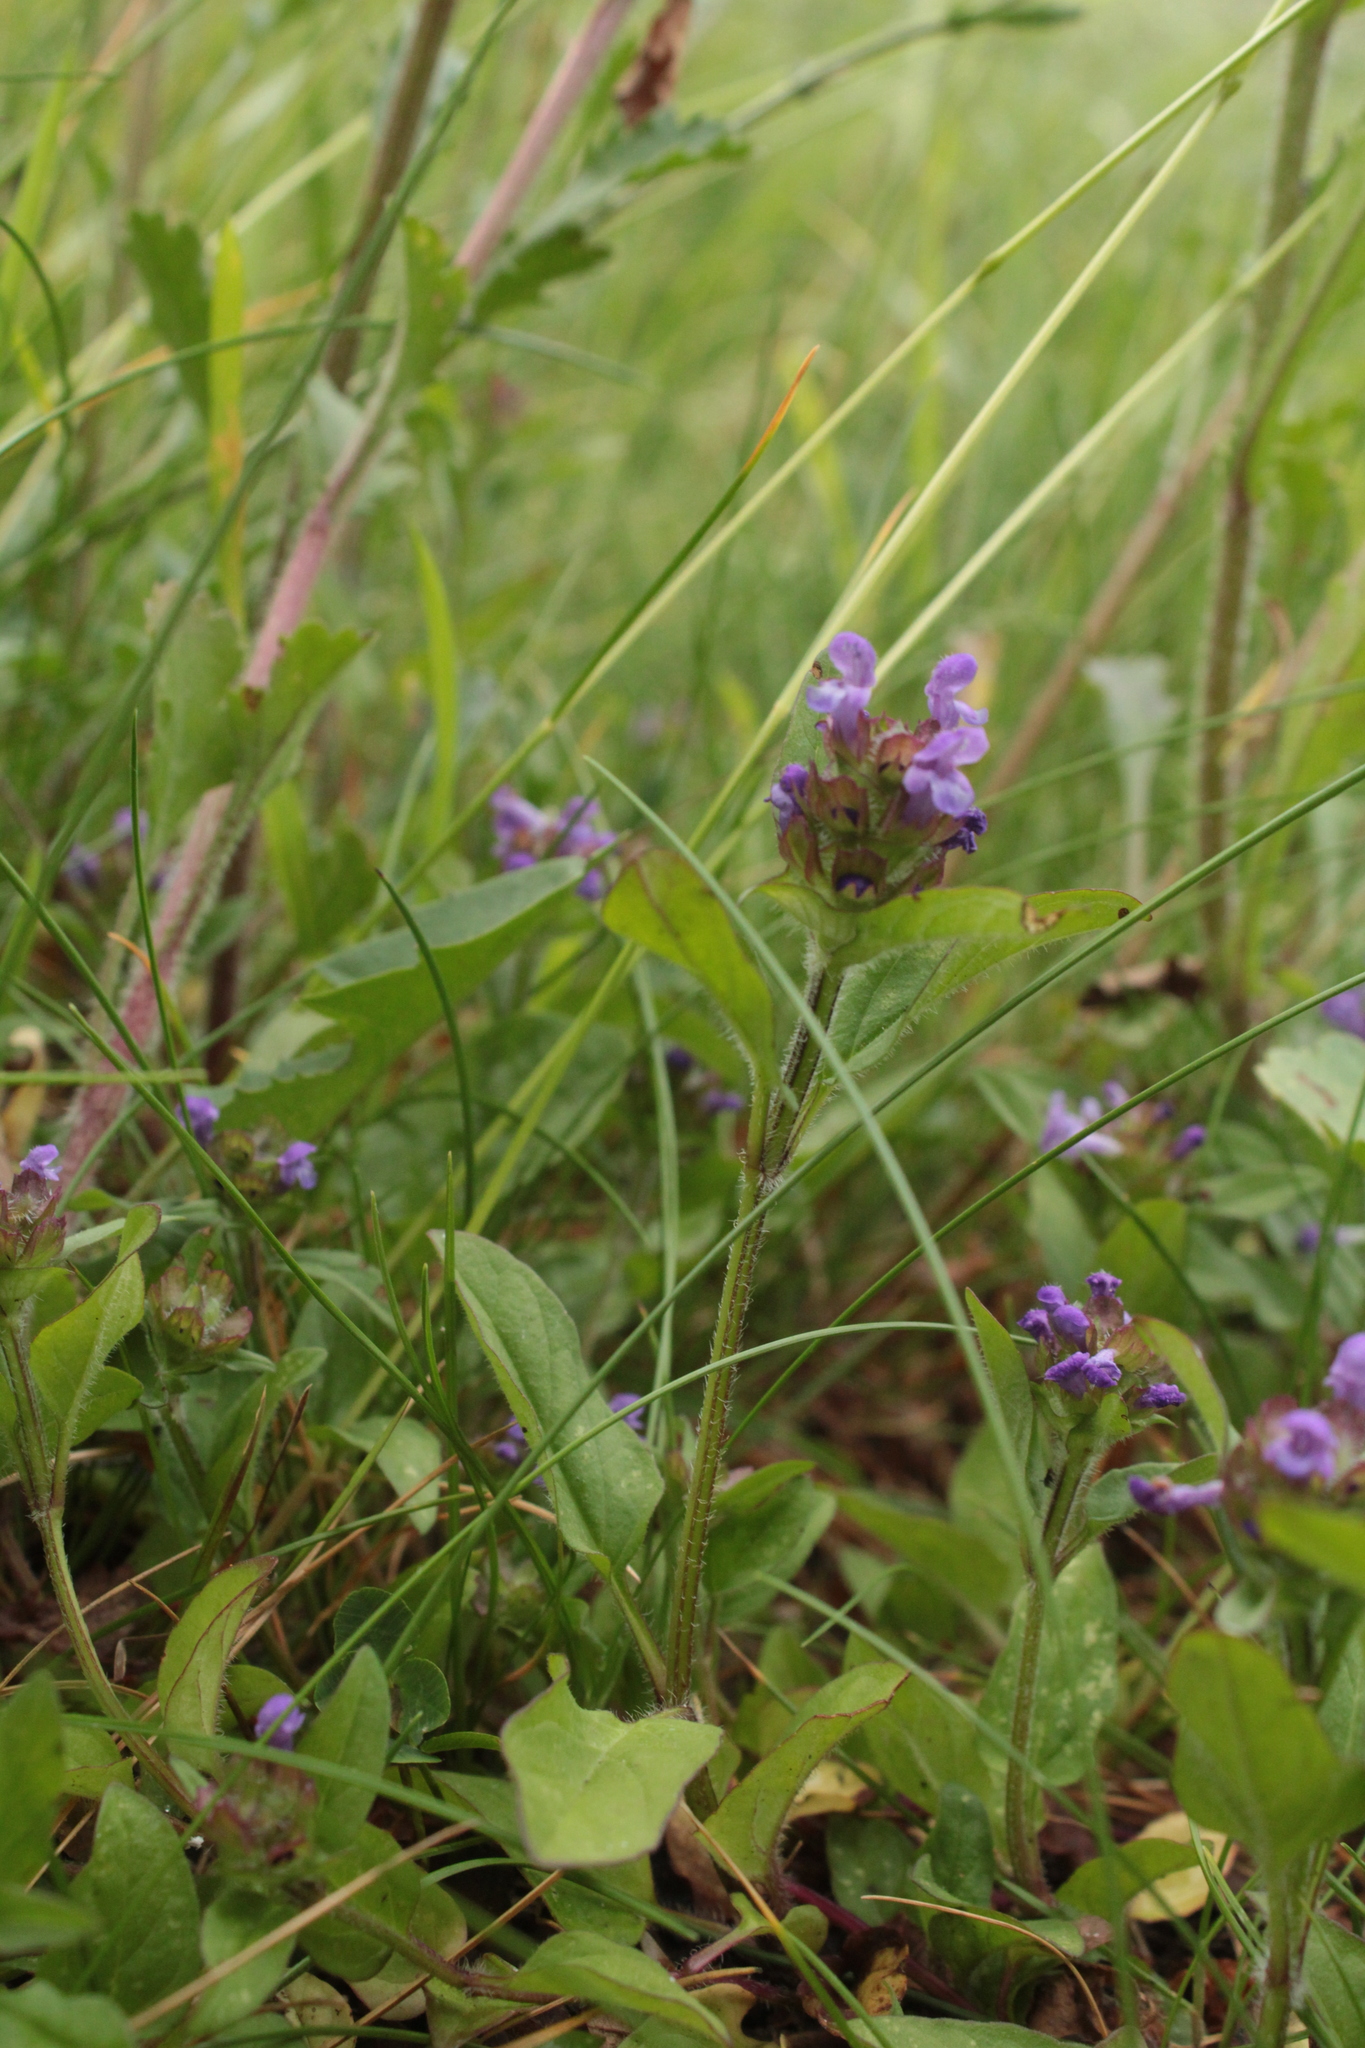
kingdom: Plantae
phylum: Tracheophyta
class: Magnoliopsida
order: Lamiales
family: Lamiaceae
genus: Prunella
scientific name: Prunella vulgaris
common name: Heal-all
